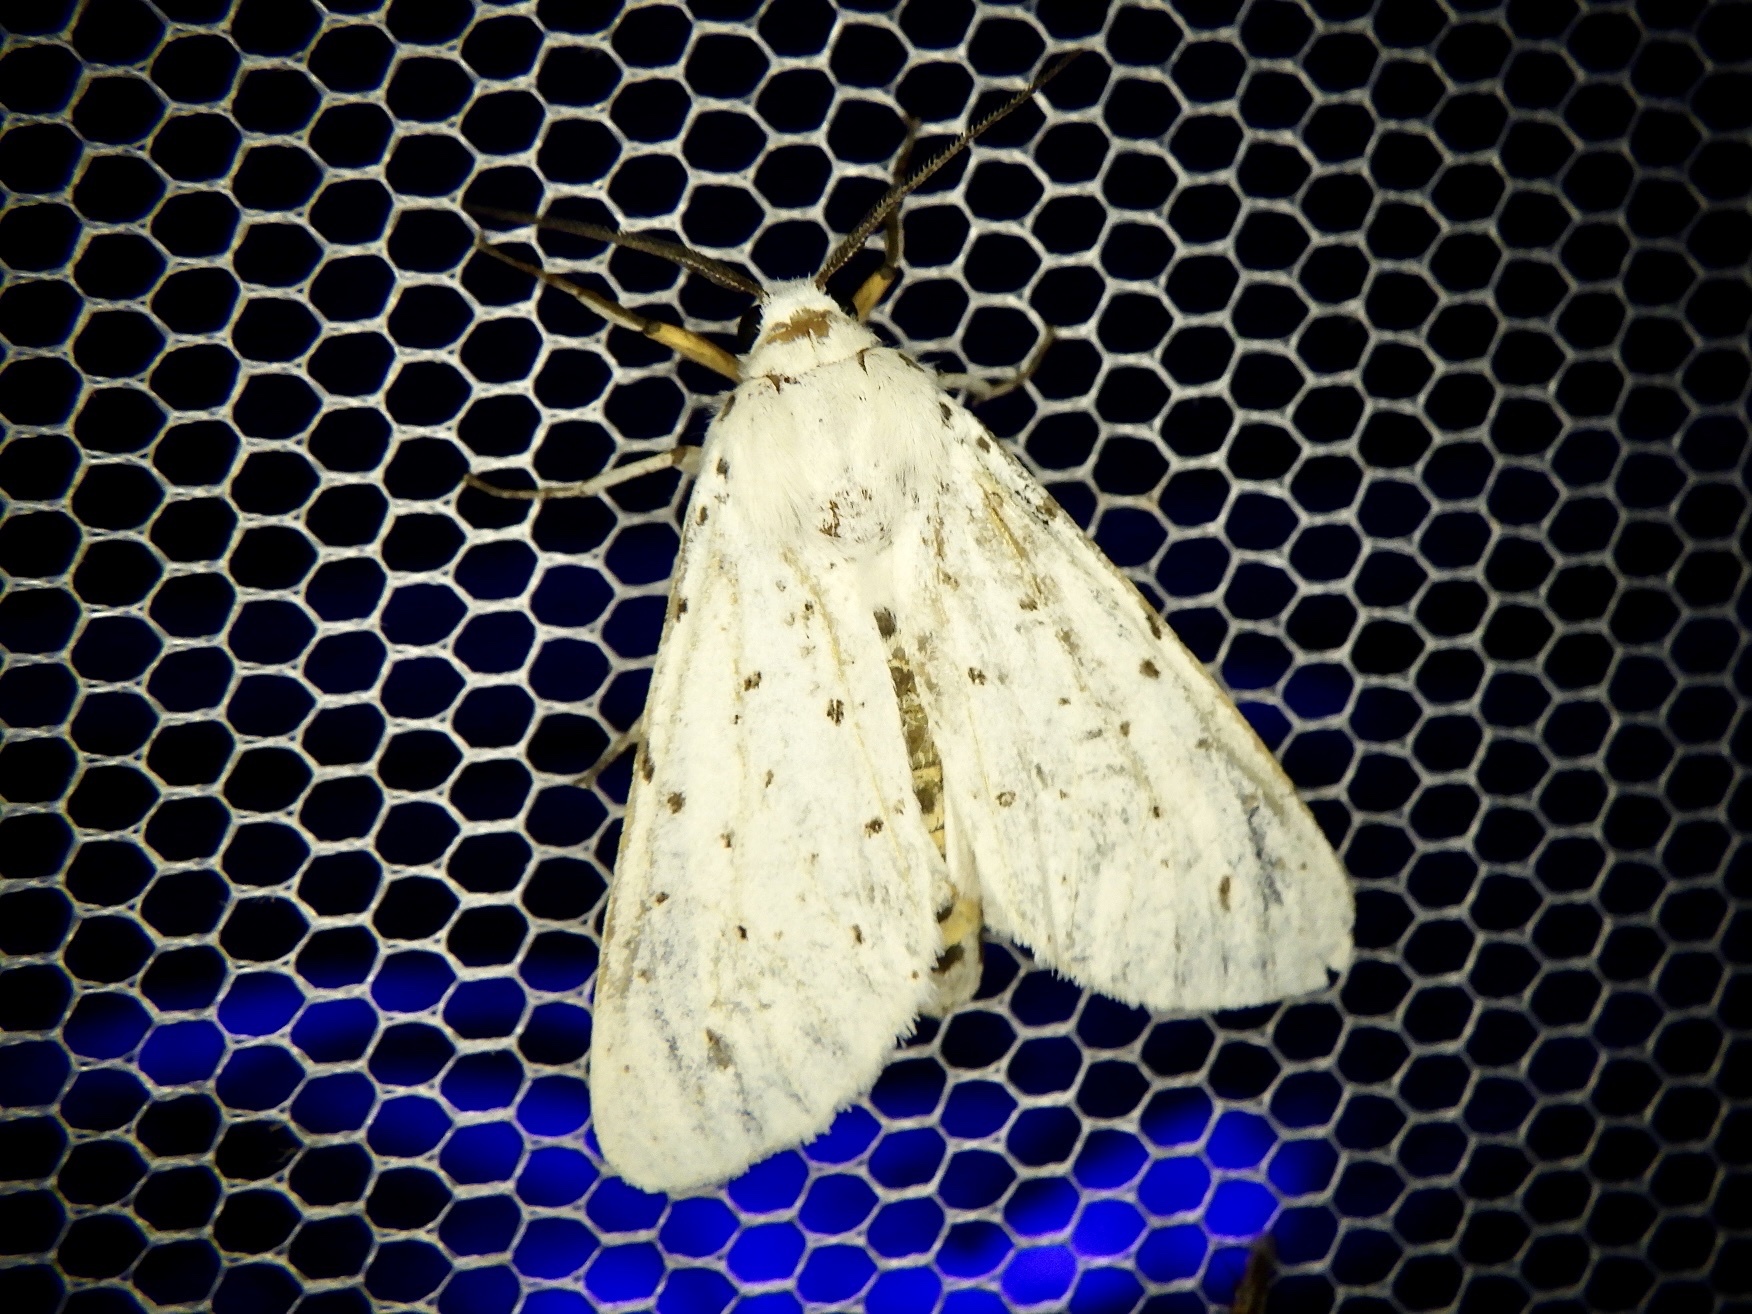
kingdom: Animalia
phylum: Arthropoda
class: Insecta
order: Lepidoptera
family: Erebidae
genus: Spilosoma
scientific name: Spilosoma lubricipeda
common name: White ermine
